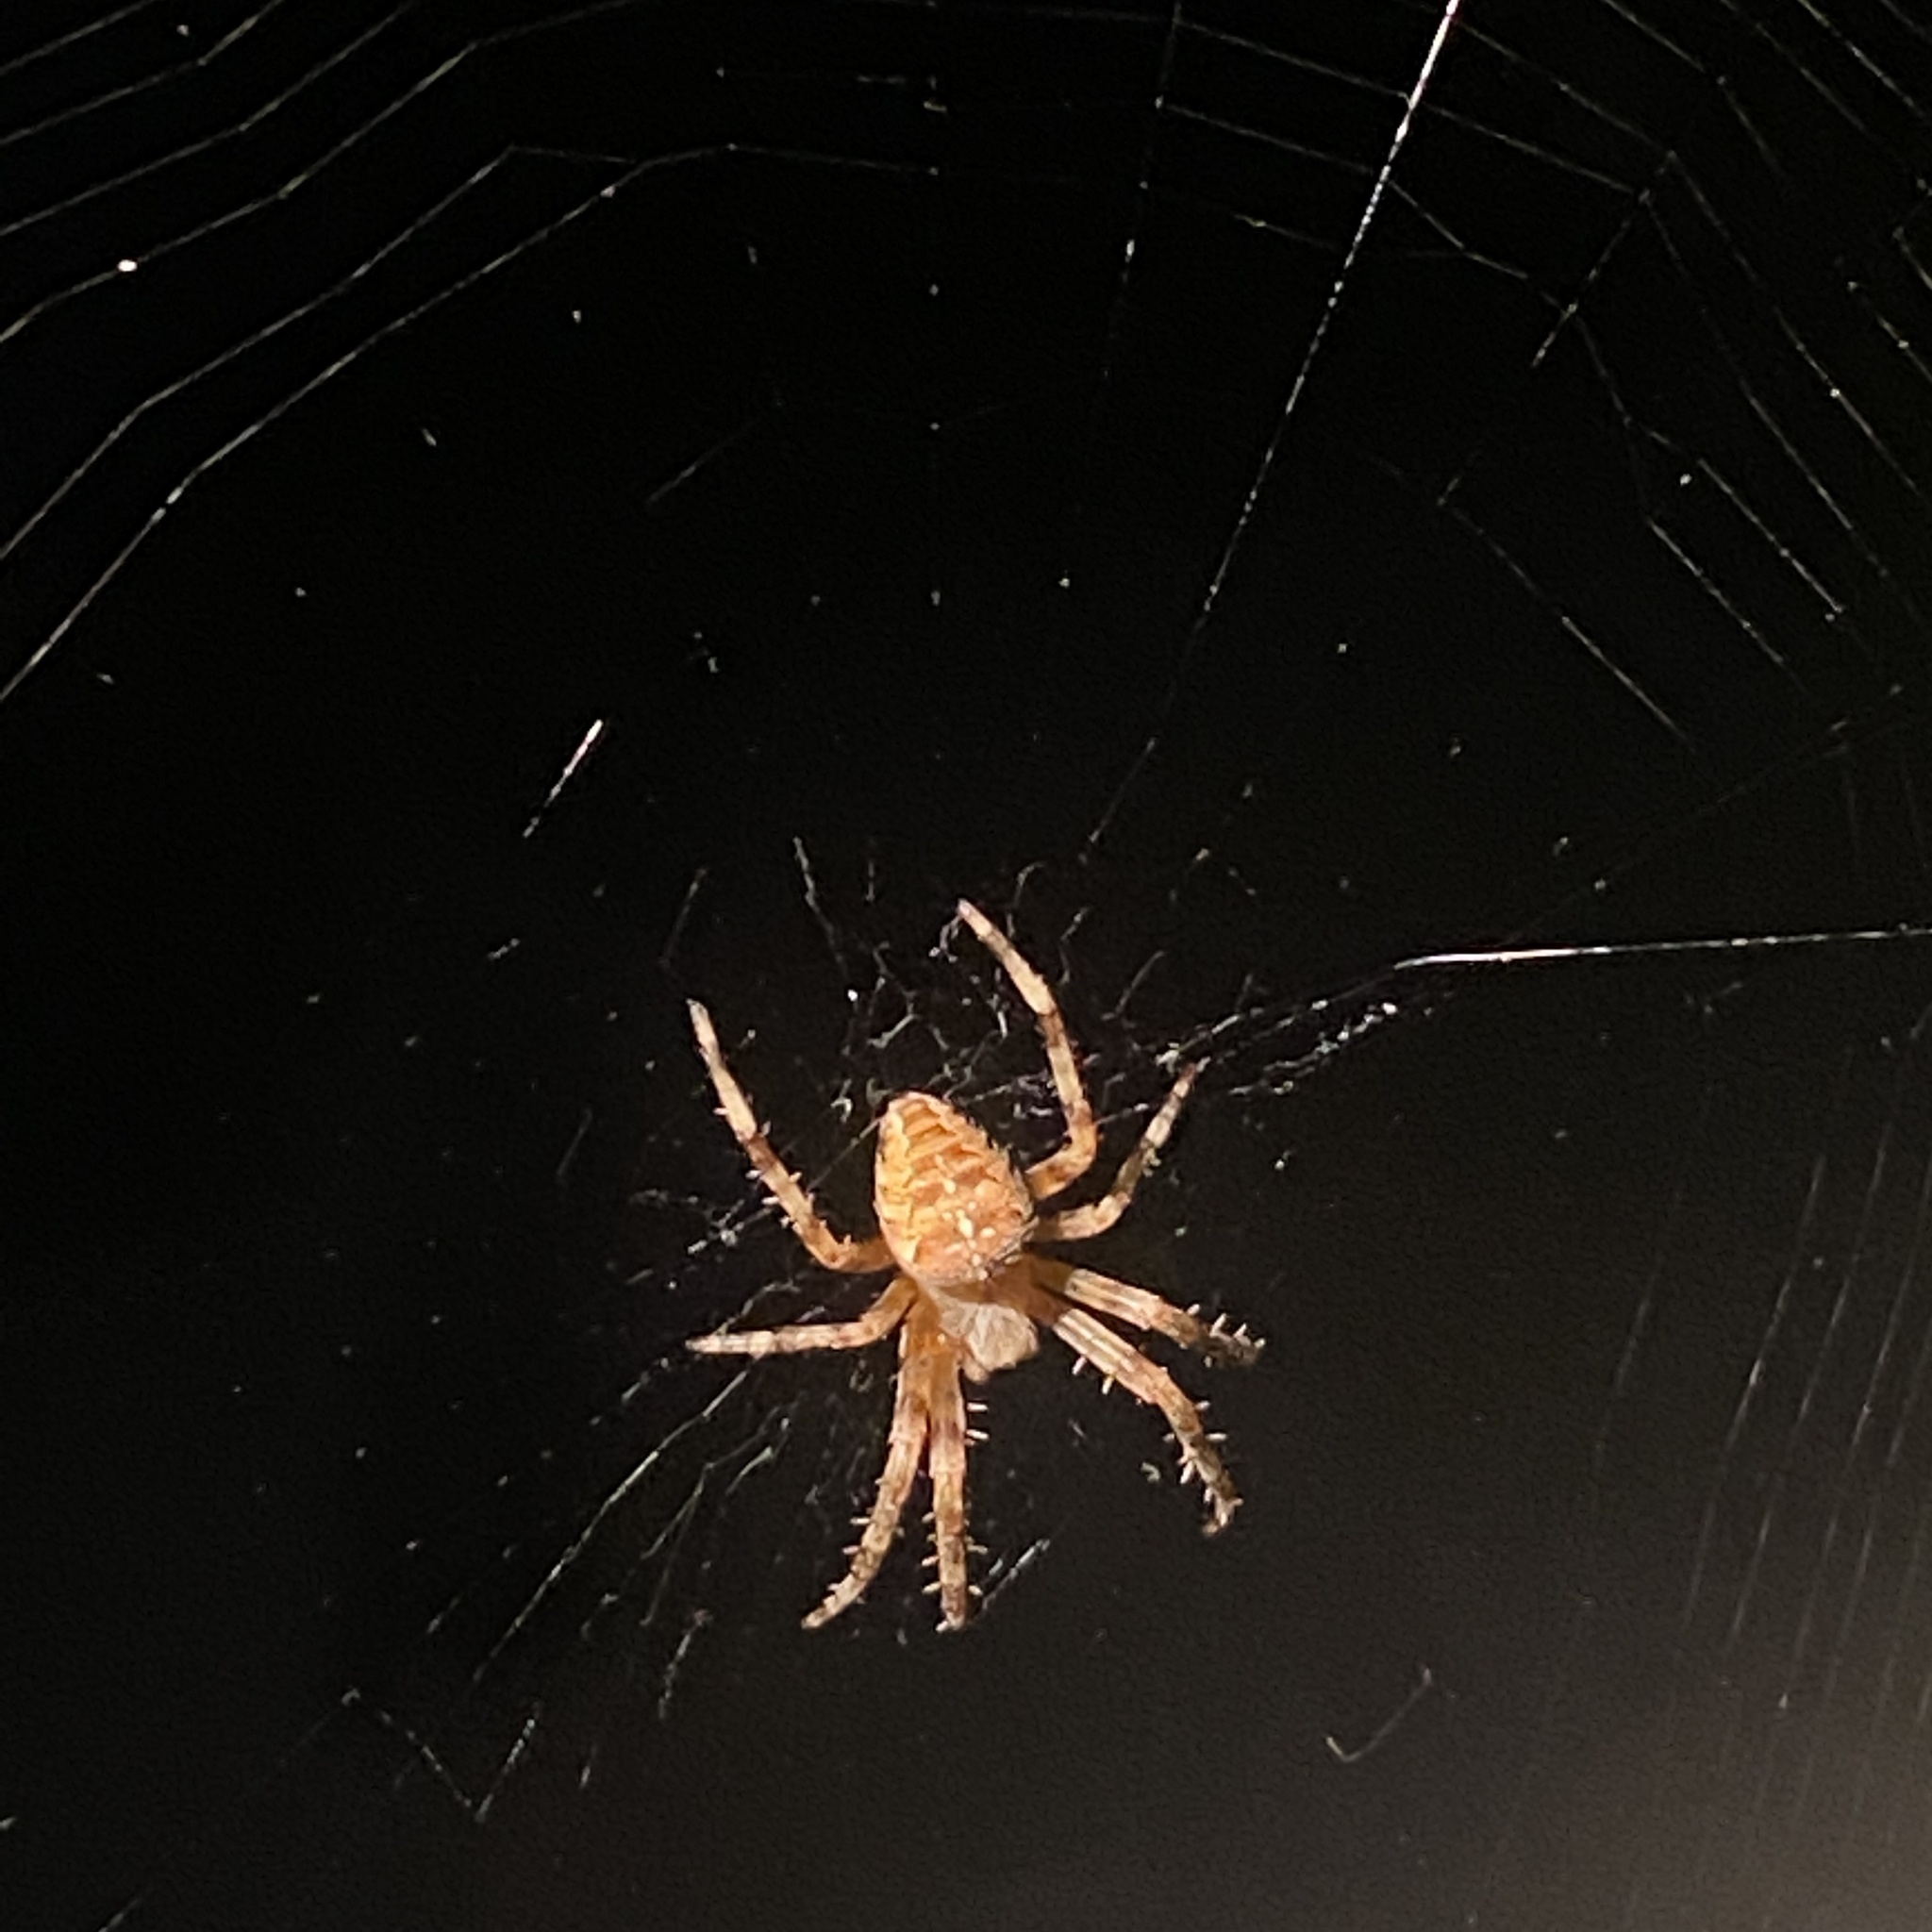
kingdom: Animalia
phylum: Arthropoda
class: Arachnida
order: Araneae
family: Araneidae
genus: Araneus
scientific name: Araneus diadematus
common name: Cross orbweaver
